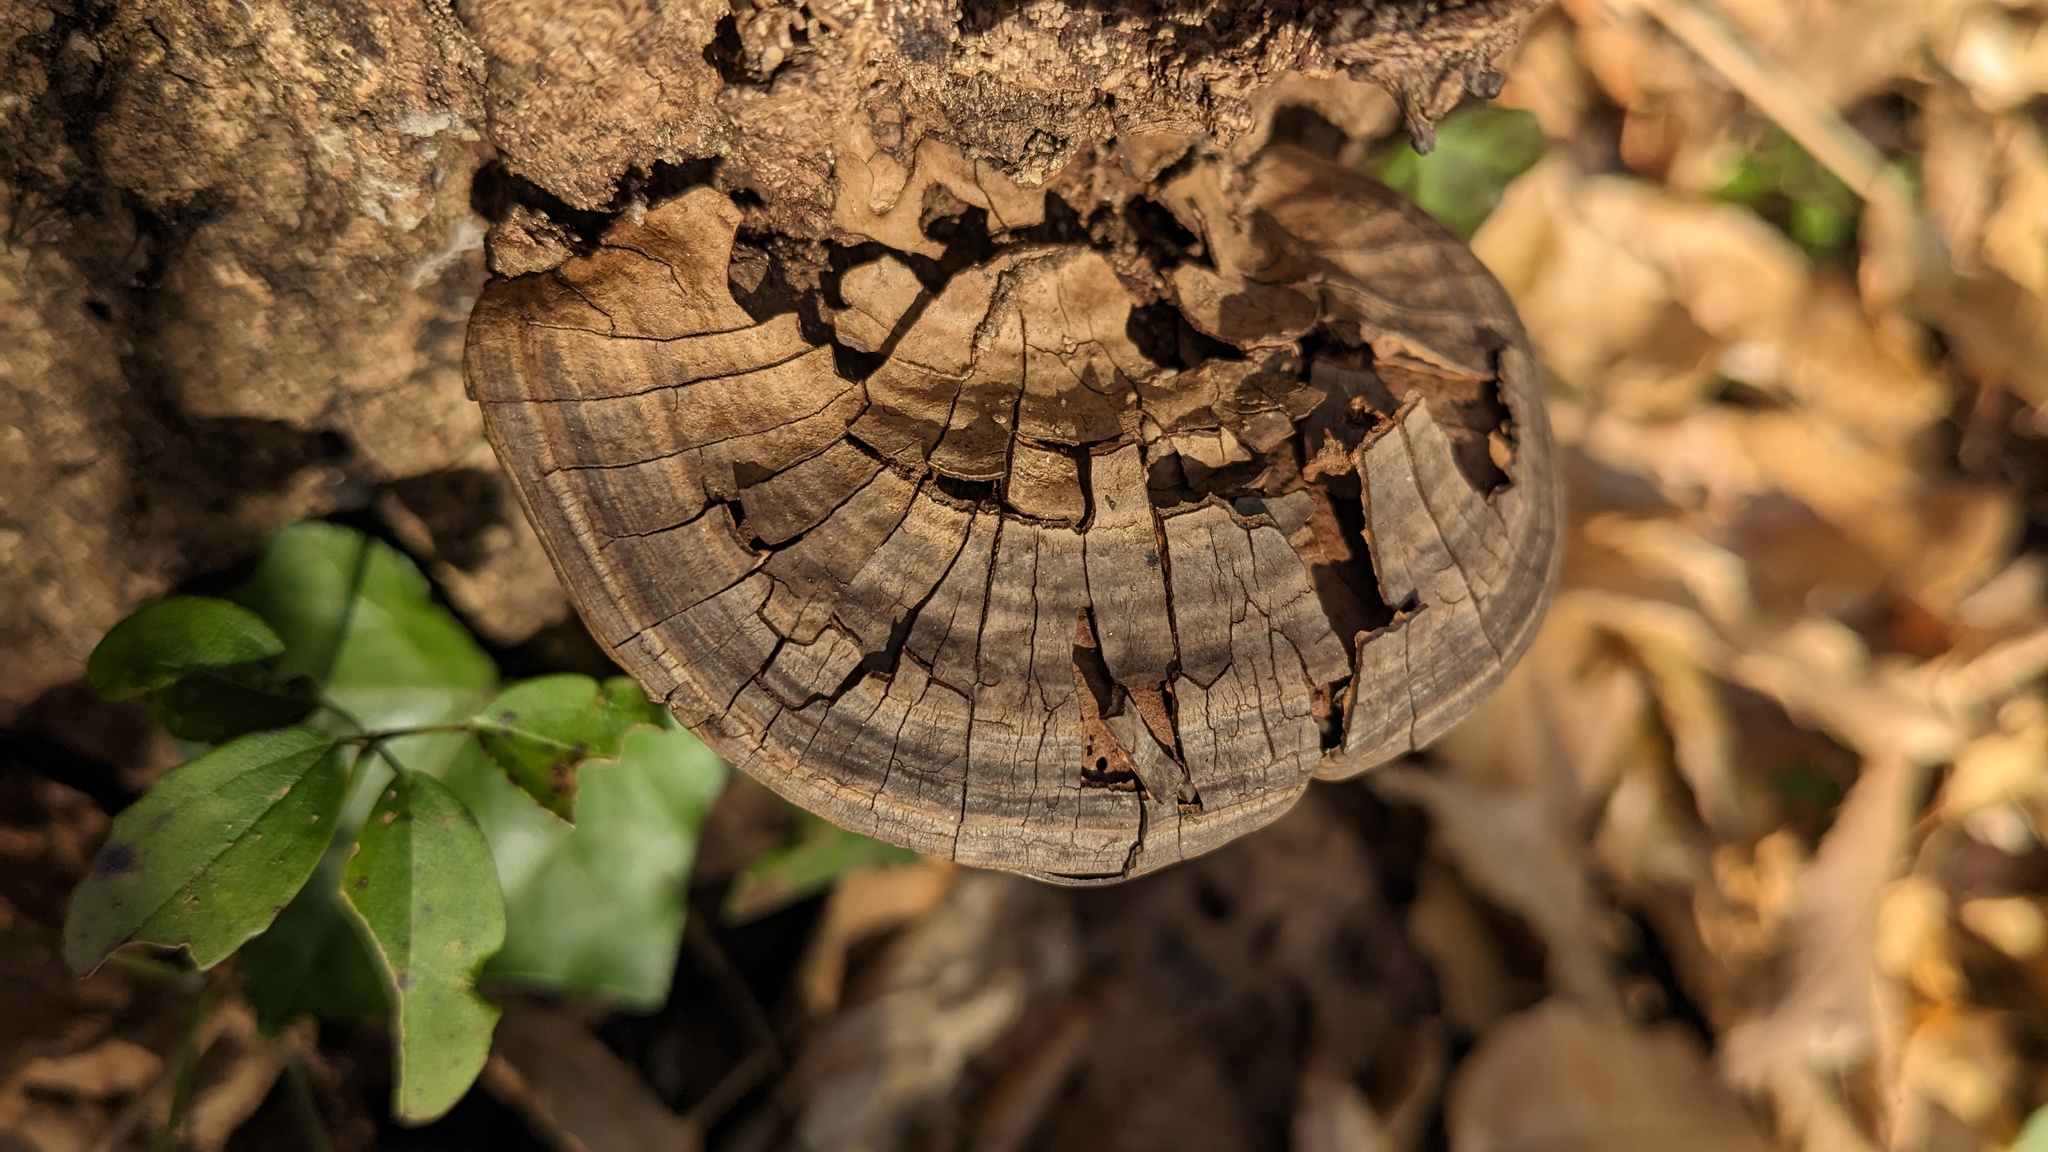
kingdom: Fungi
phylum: Basidiomycota
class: Agaricomycetes
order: Polyporales
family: Polyporaceae
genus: Ganoderma
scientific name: Ganoderma applanatum
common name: Artist's bracket
